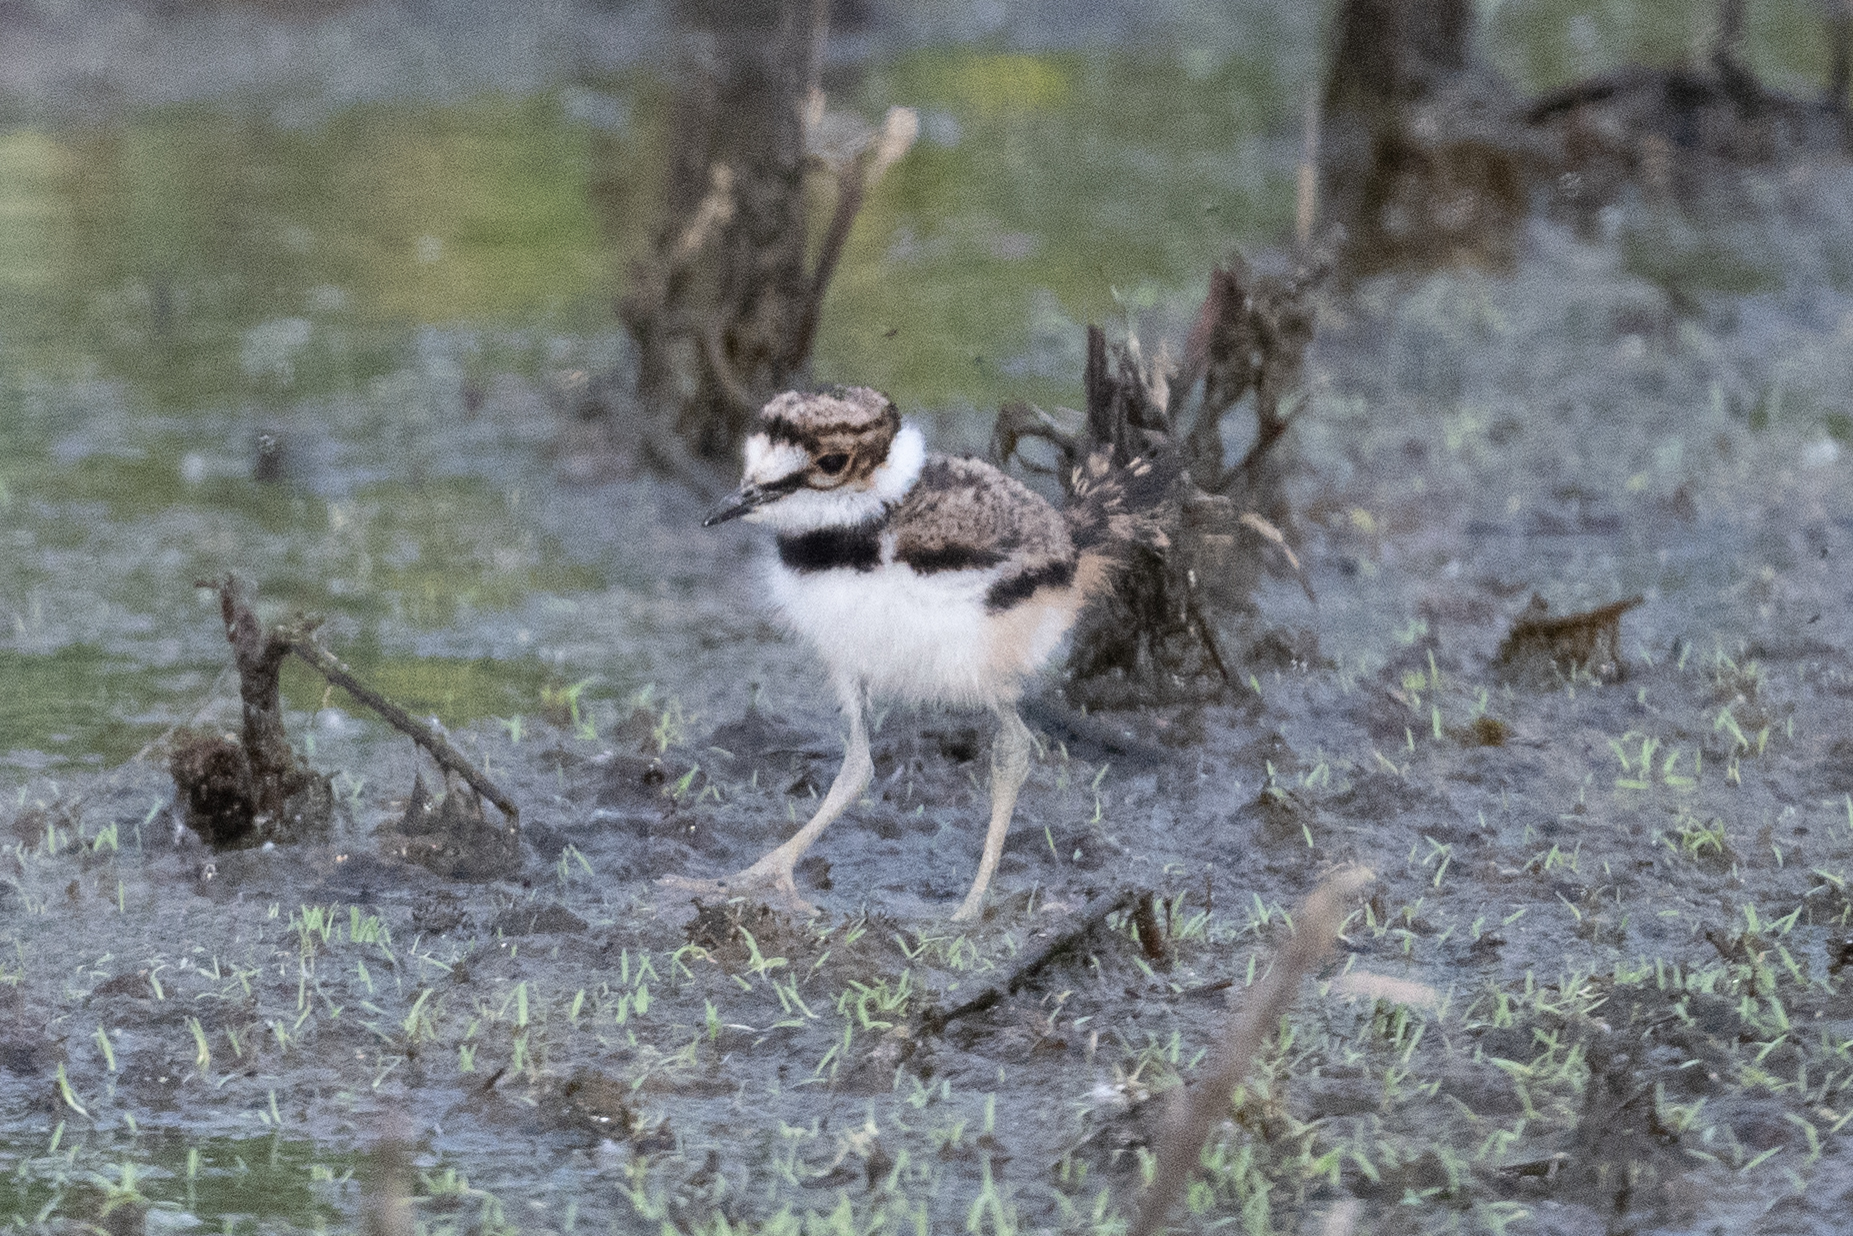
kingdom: Animalia
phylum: Chordata
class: Aves
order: Charadriiformes
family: Charadriidae
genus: Charadrius
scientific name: Charadrius vociferus
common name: Killdeer
